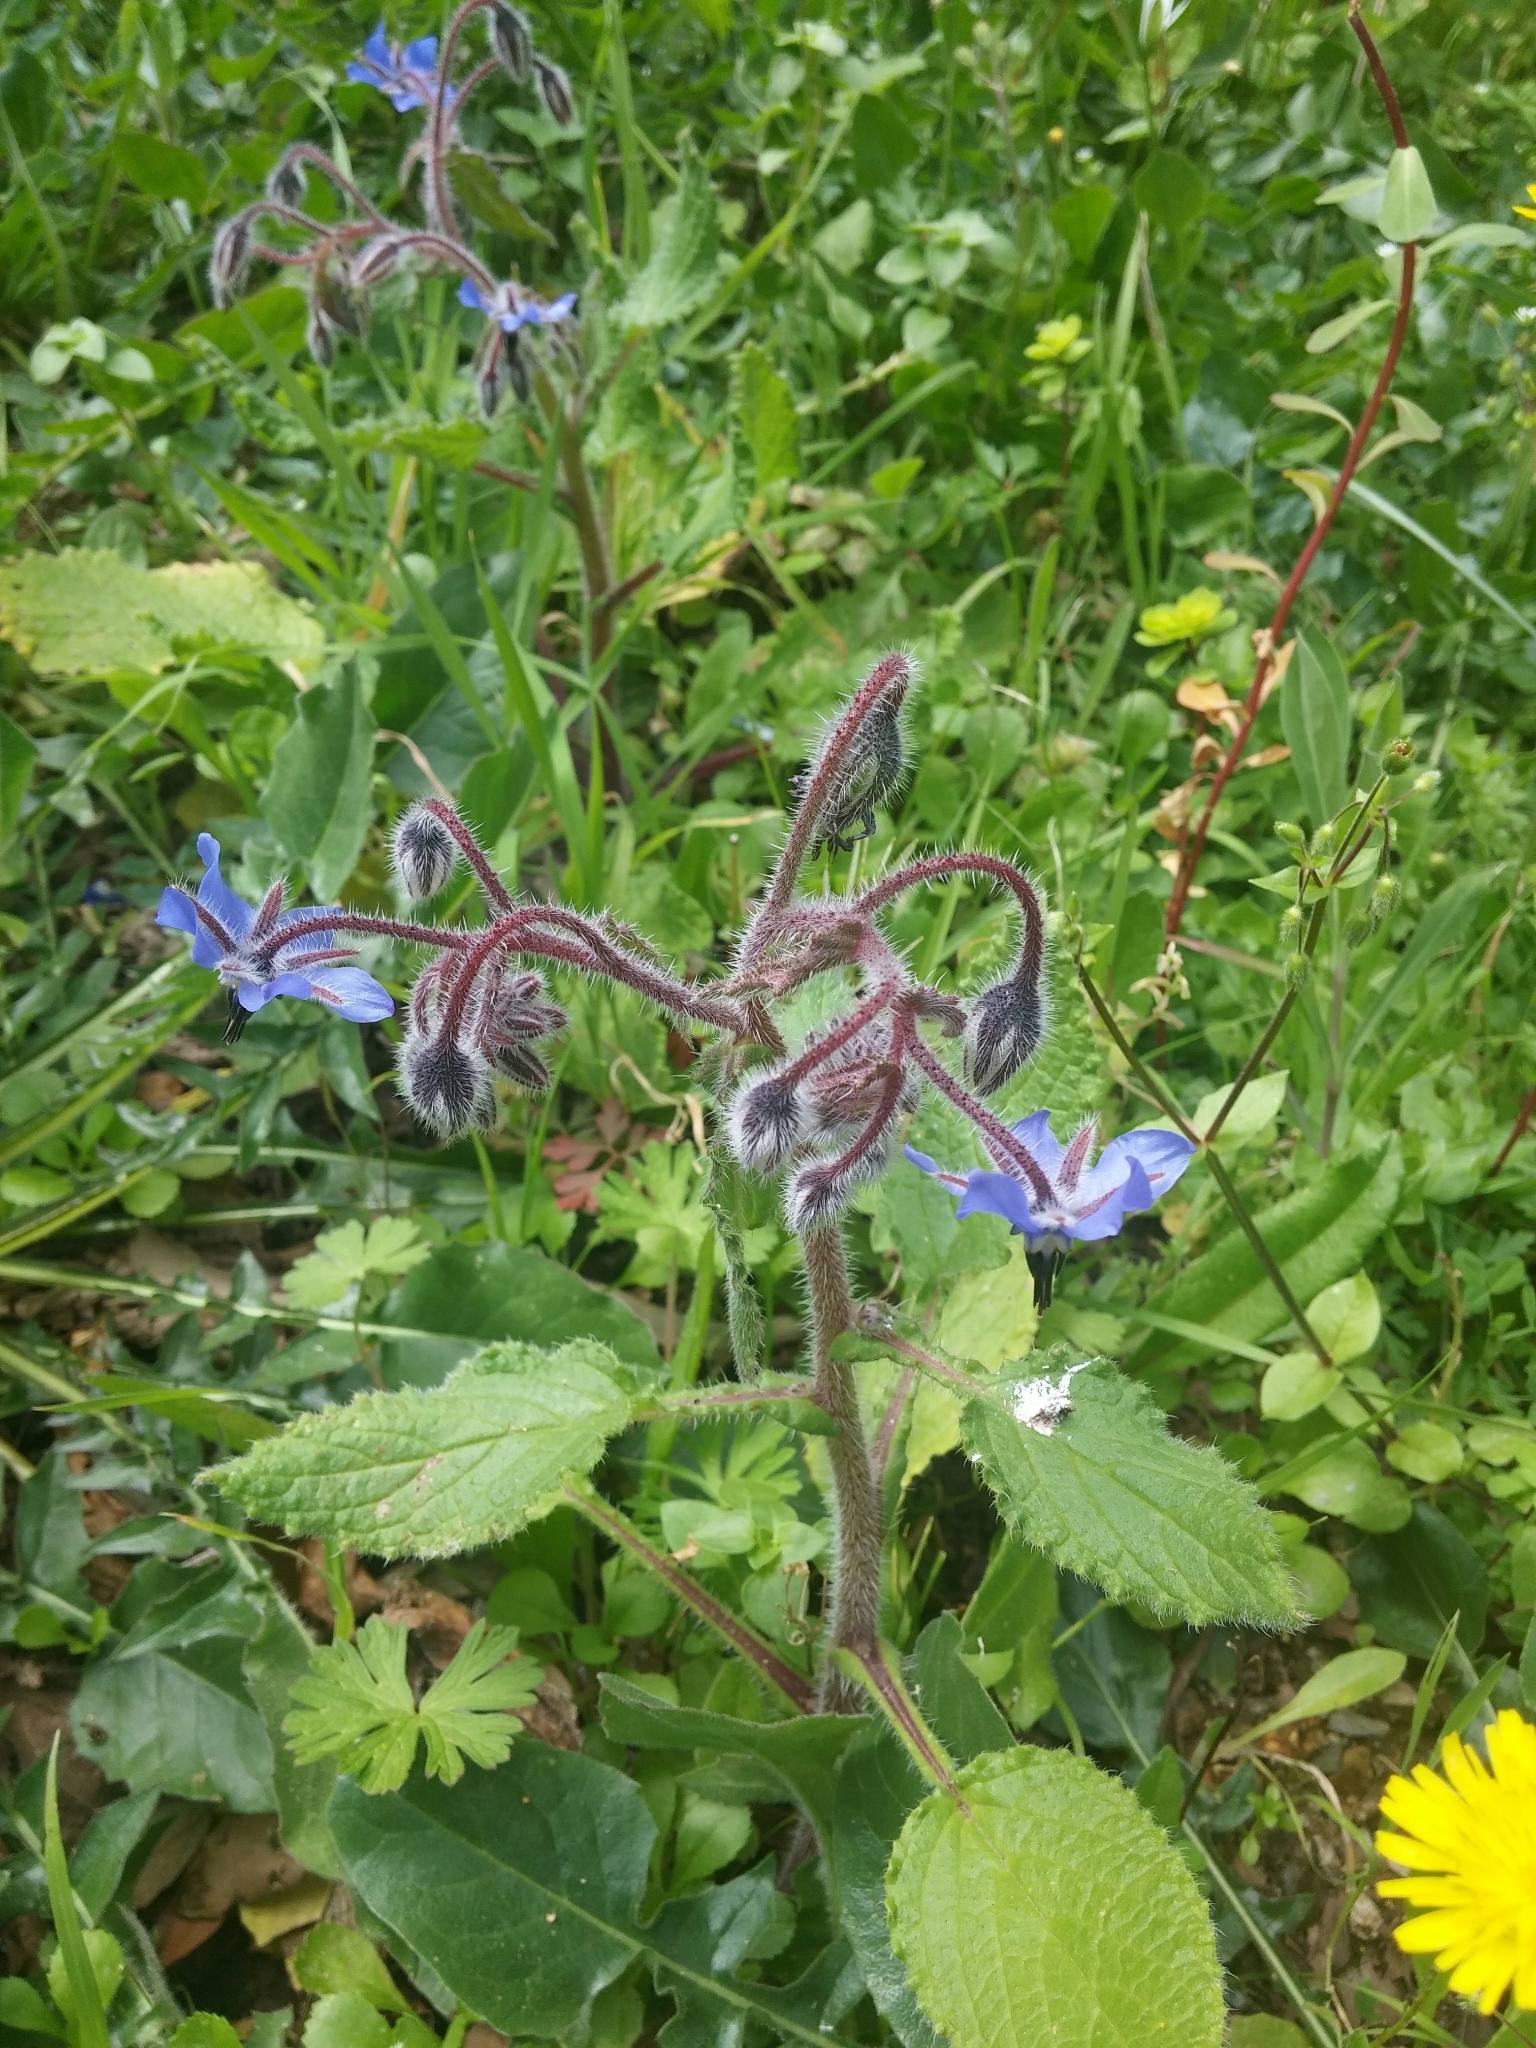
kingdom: Plantae
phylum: Tracheophyta
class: Magnoliopsida
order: Boraginales
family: Boraginaceae
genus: Borago
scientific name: Borago officinalis
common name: Borage
